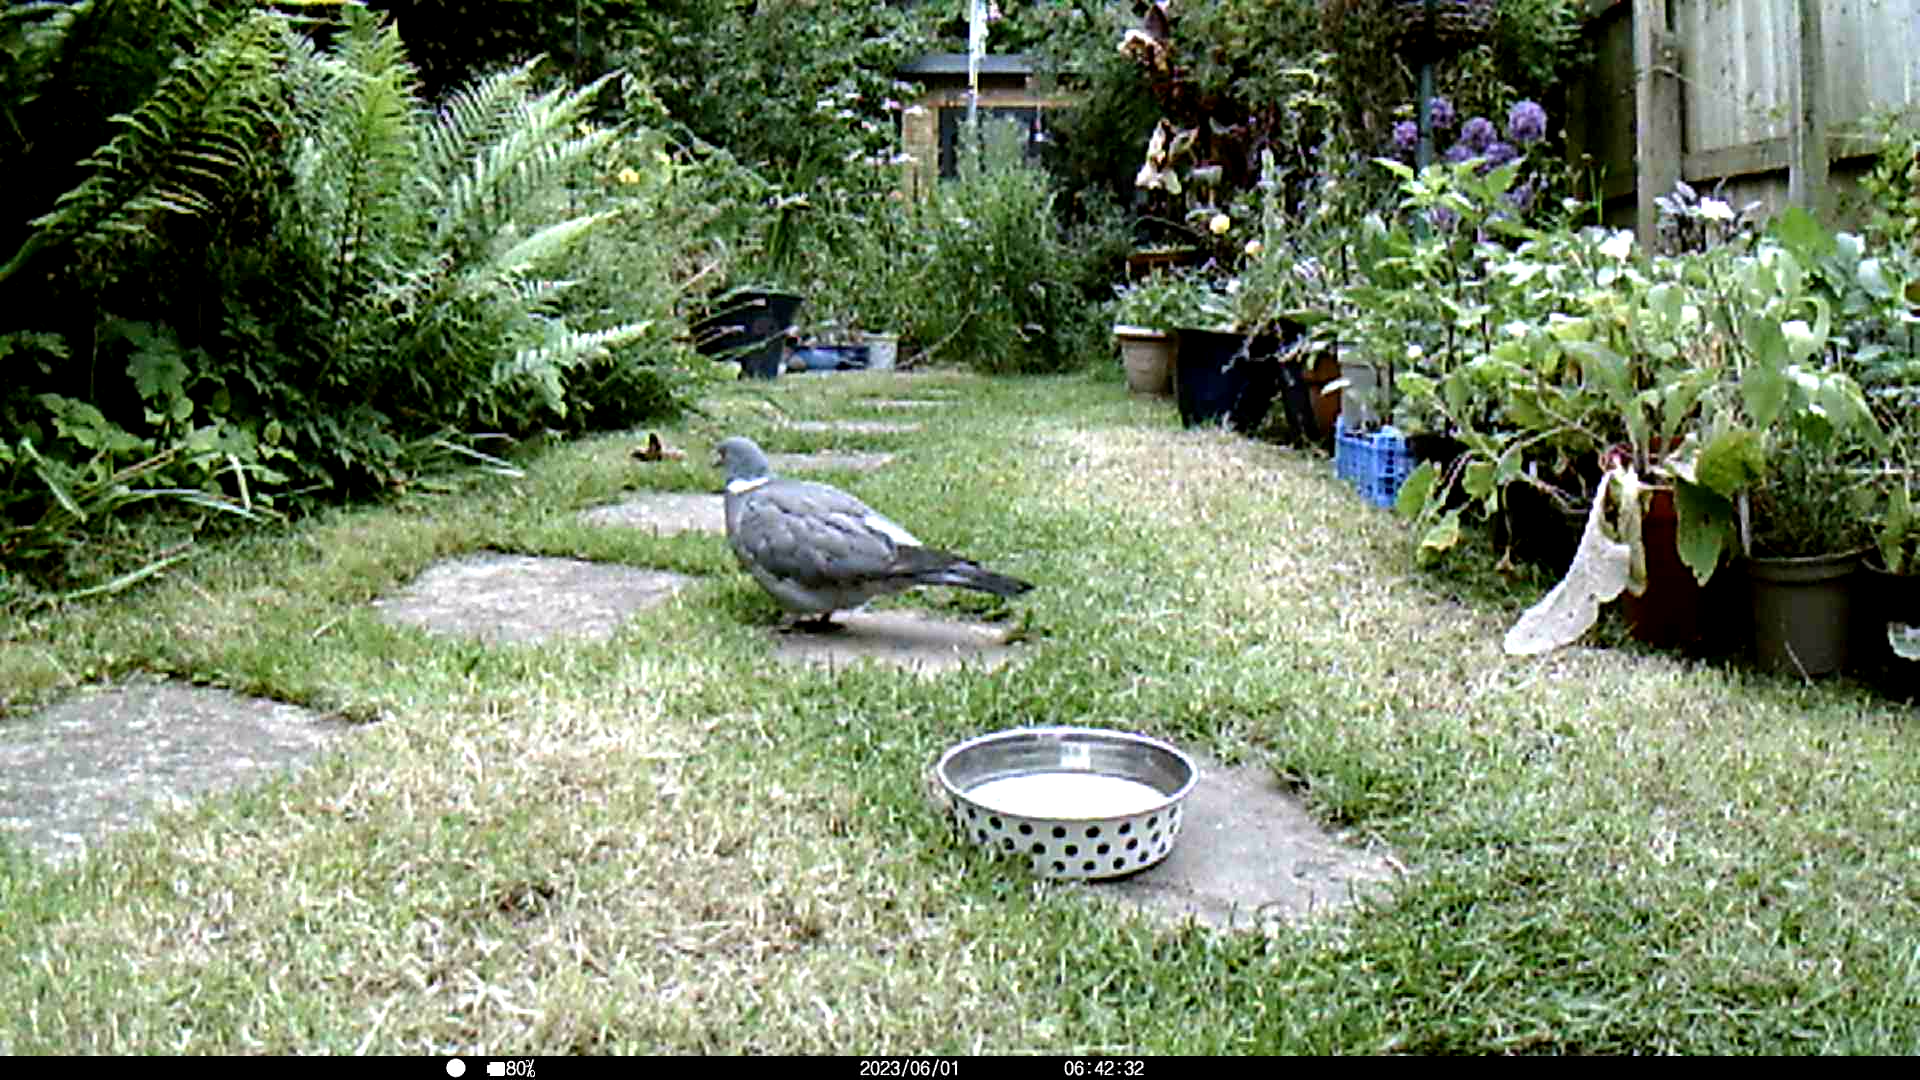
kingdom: Animalia
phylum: Chordata
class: Aves
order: Columbiformes
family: Columbidae
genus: Columba
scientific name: Columba palumbus
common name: Common wood pigeon
